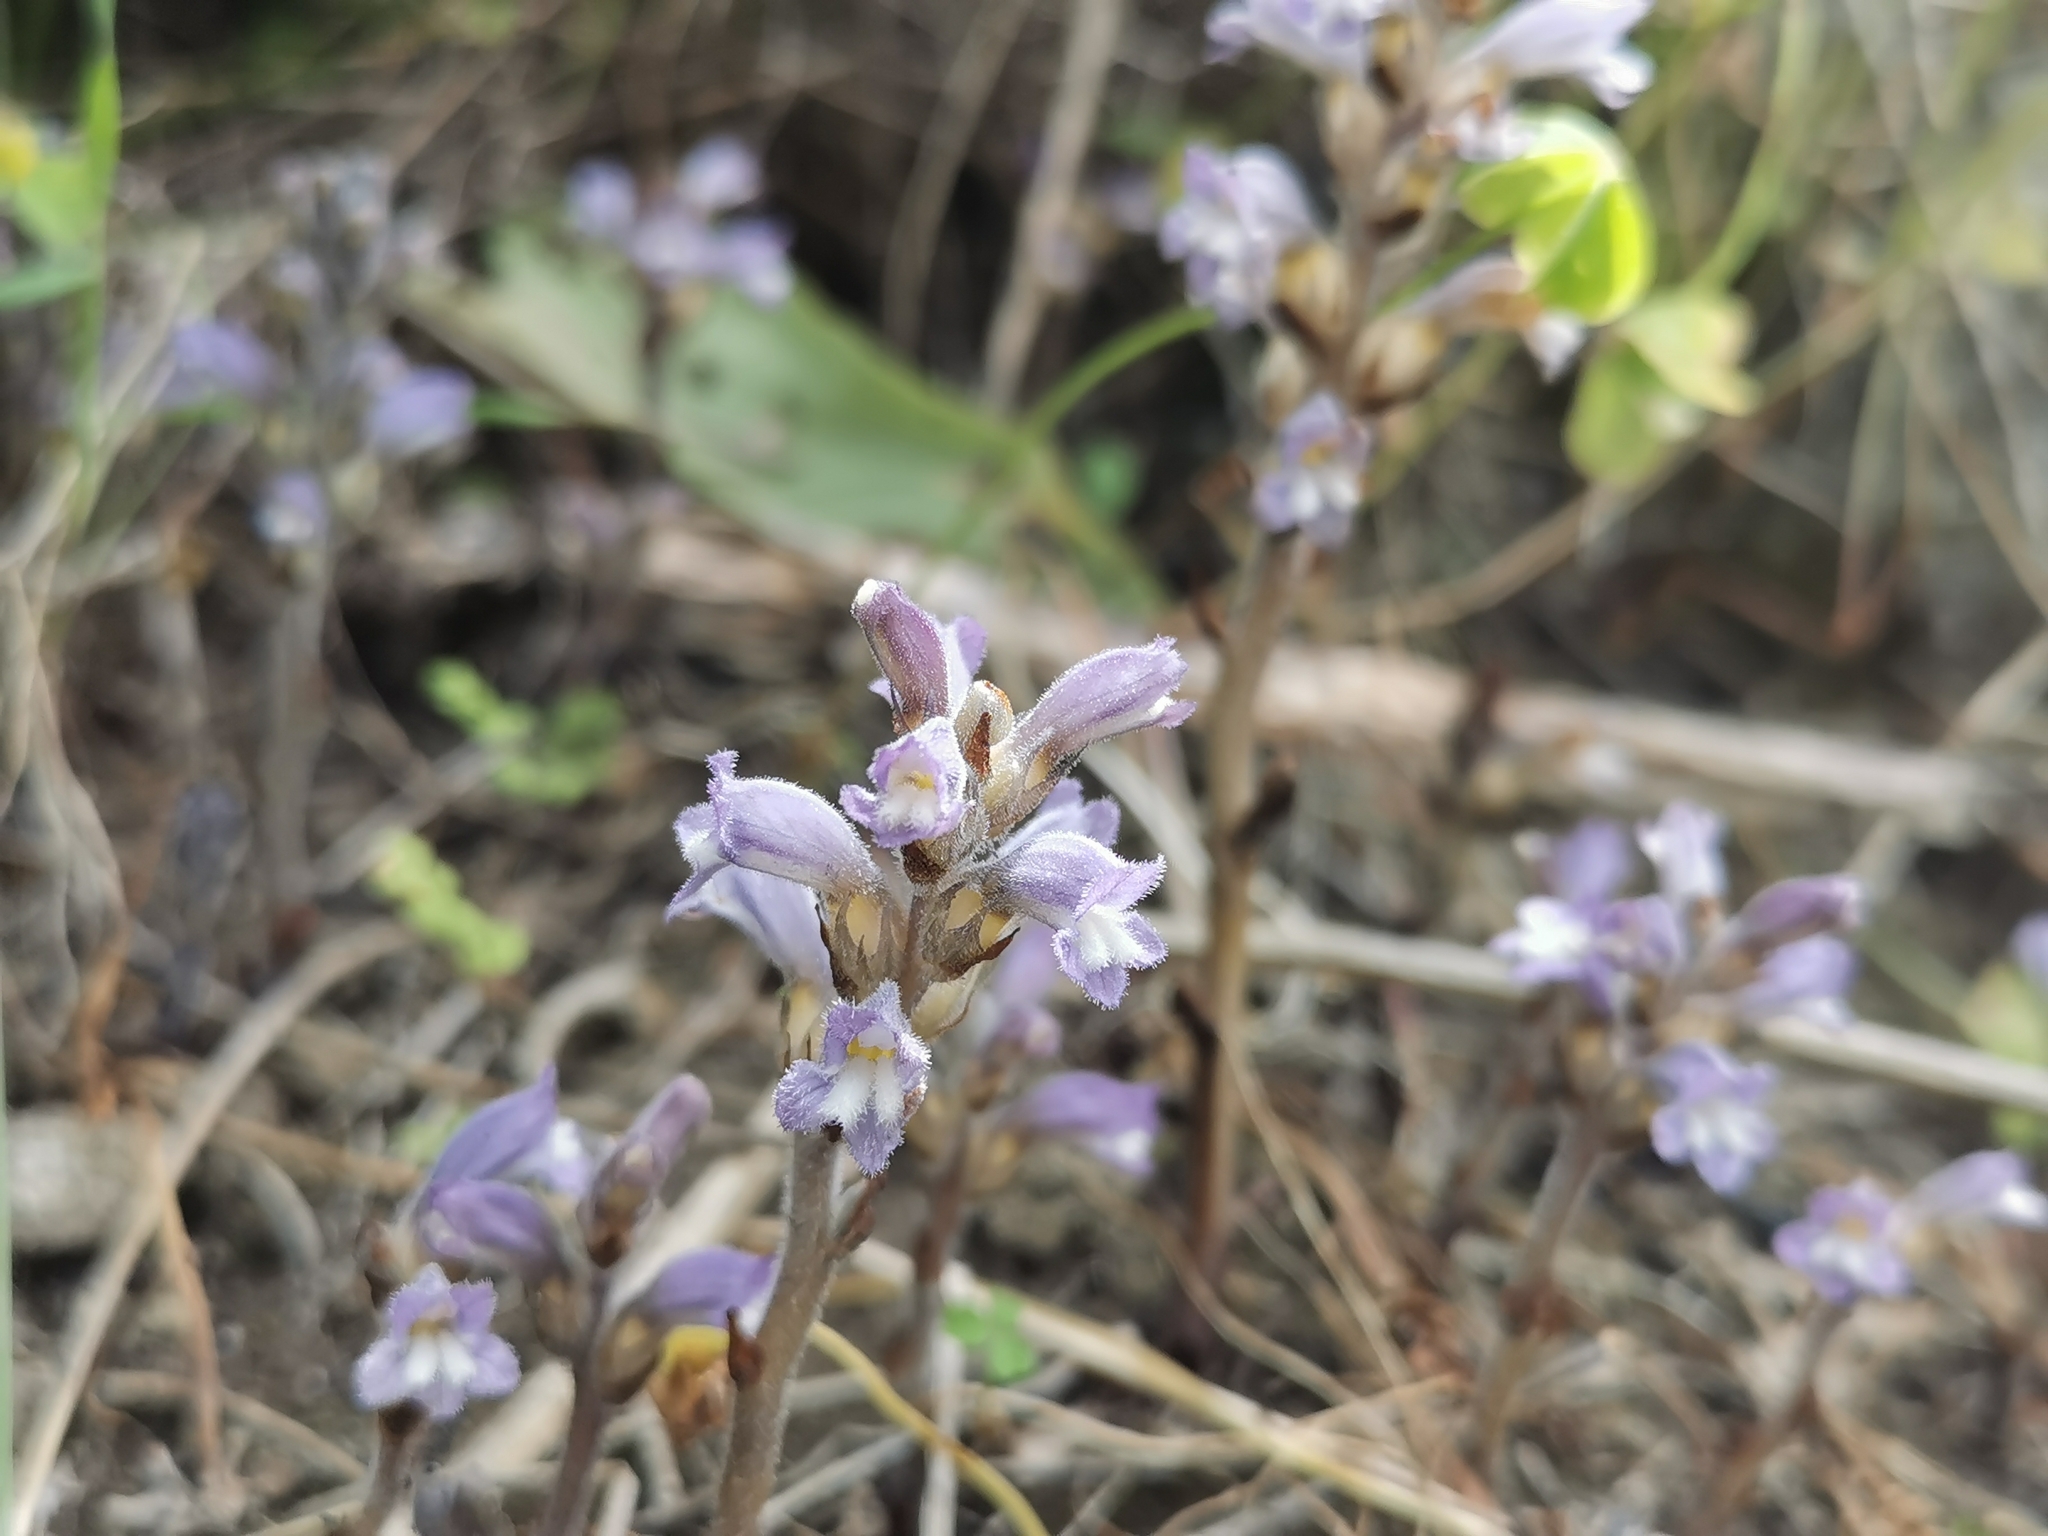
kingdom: Plantae
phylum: Tracheophyta
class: Magnoliopsida
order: Lamiales
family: Orobanchaceae
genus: Phelipanche
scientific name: Phelipanche mutelii
